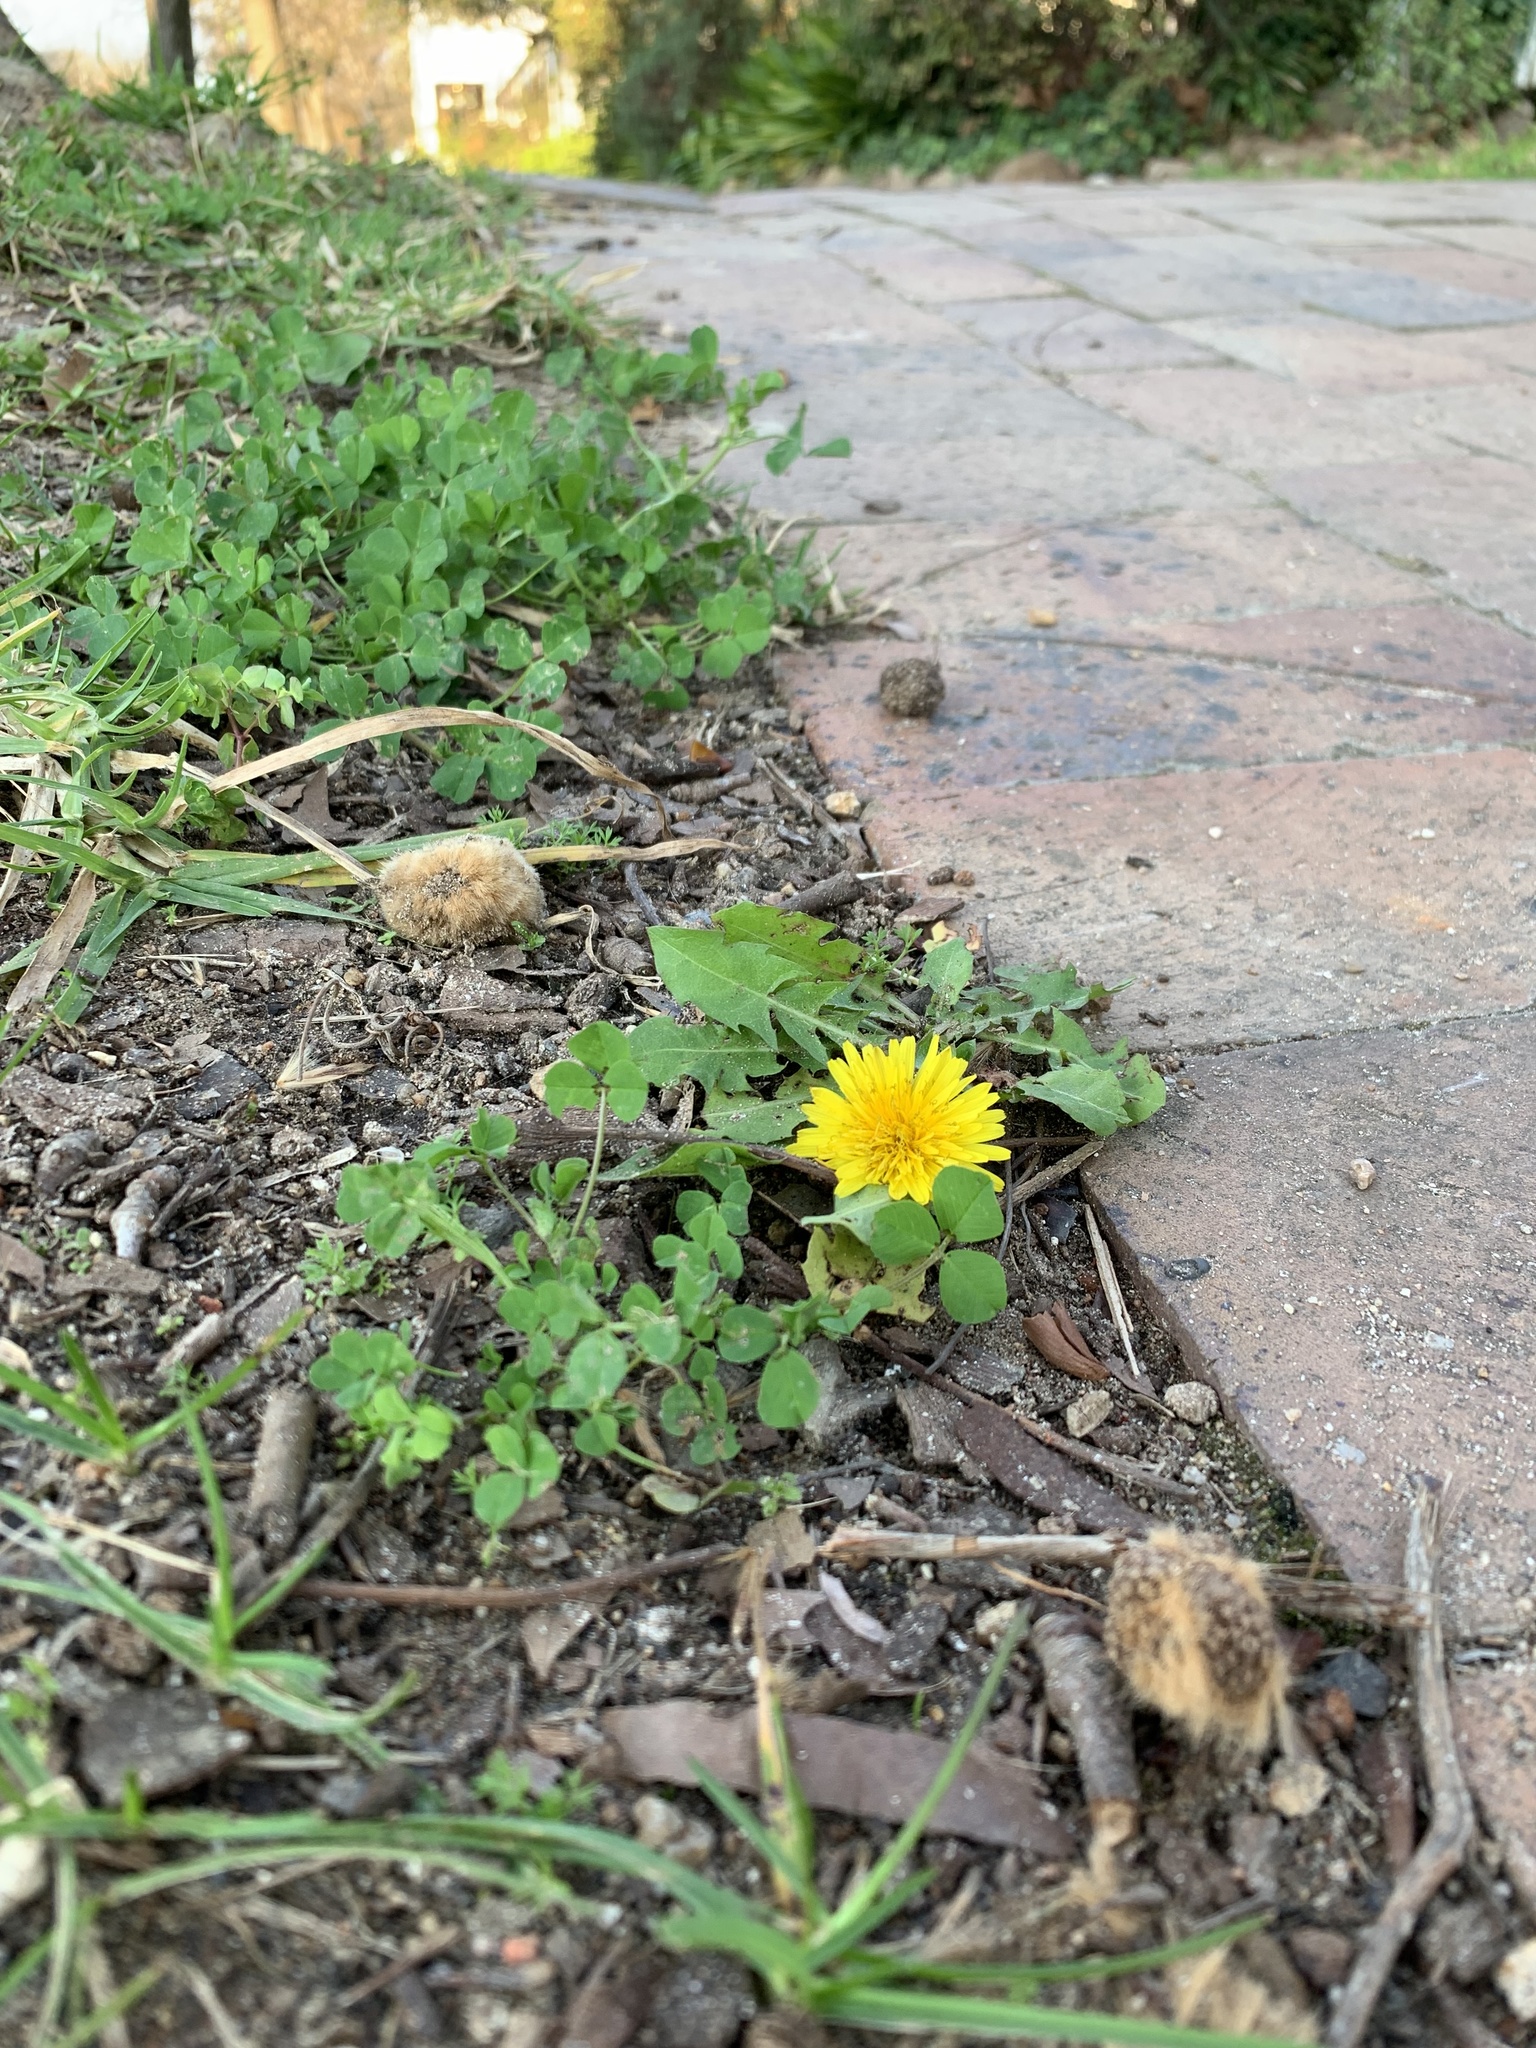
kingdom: Plantae
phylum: Tracheophyta
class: Magnoliopsida
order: Asterales
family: Asteraceae
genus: Taraxacum
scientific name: Taraxacum officinale
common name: Common dandelion
